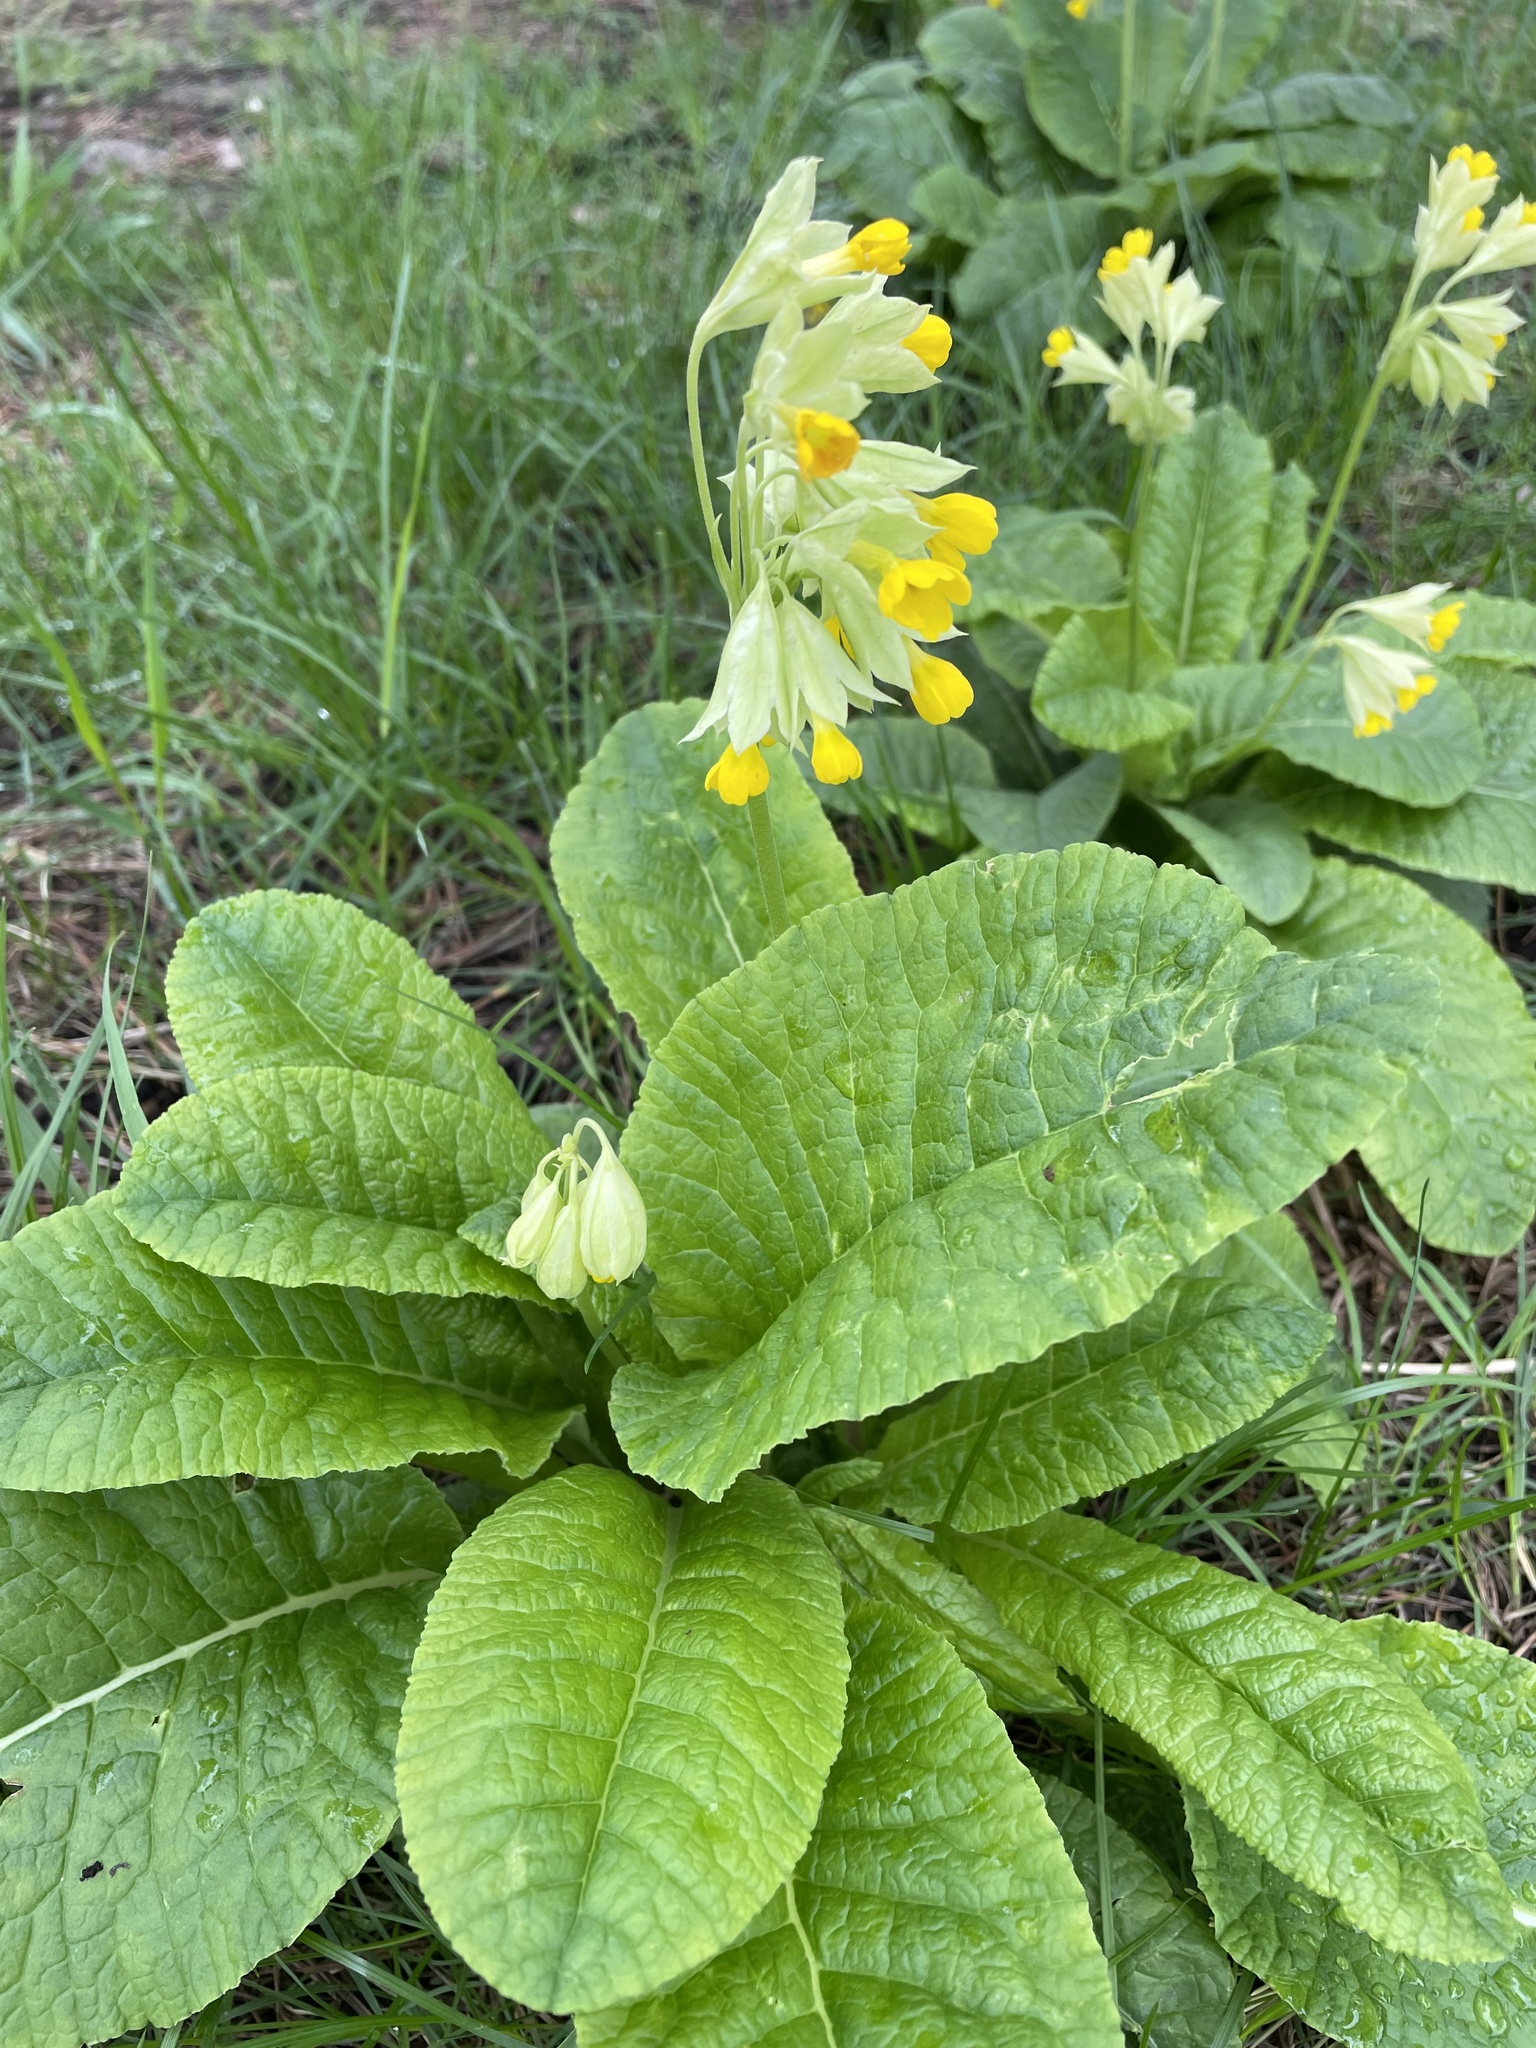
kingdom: Plantae
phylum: Tracheophyta
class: Magnoliopsida
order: Ericales
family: Primulaceae
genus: Primula
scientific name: Primula veris
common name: Cowslip
